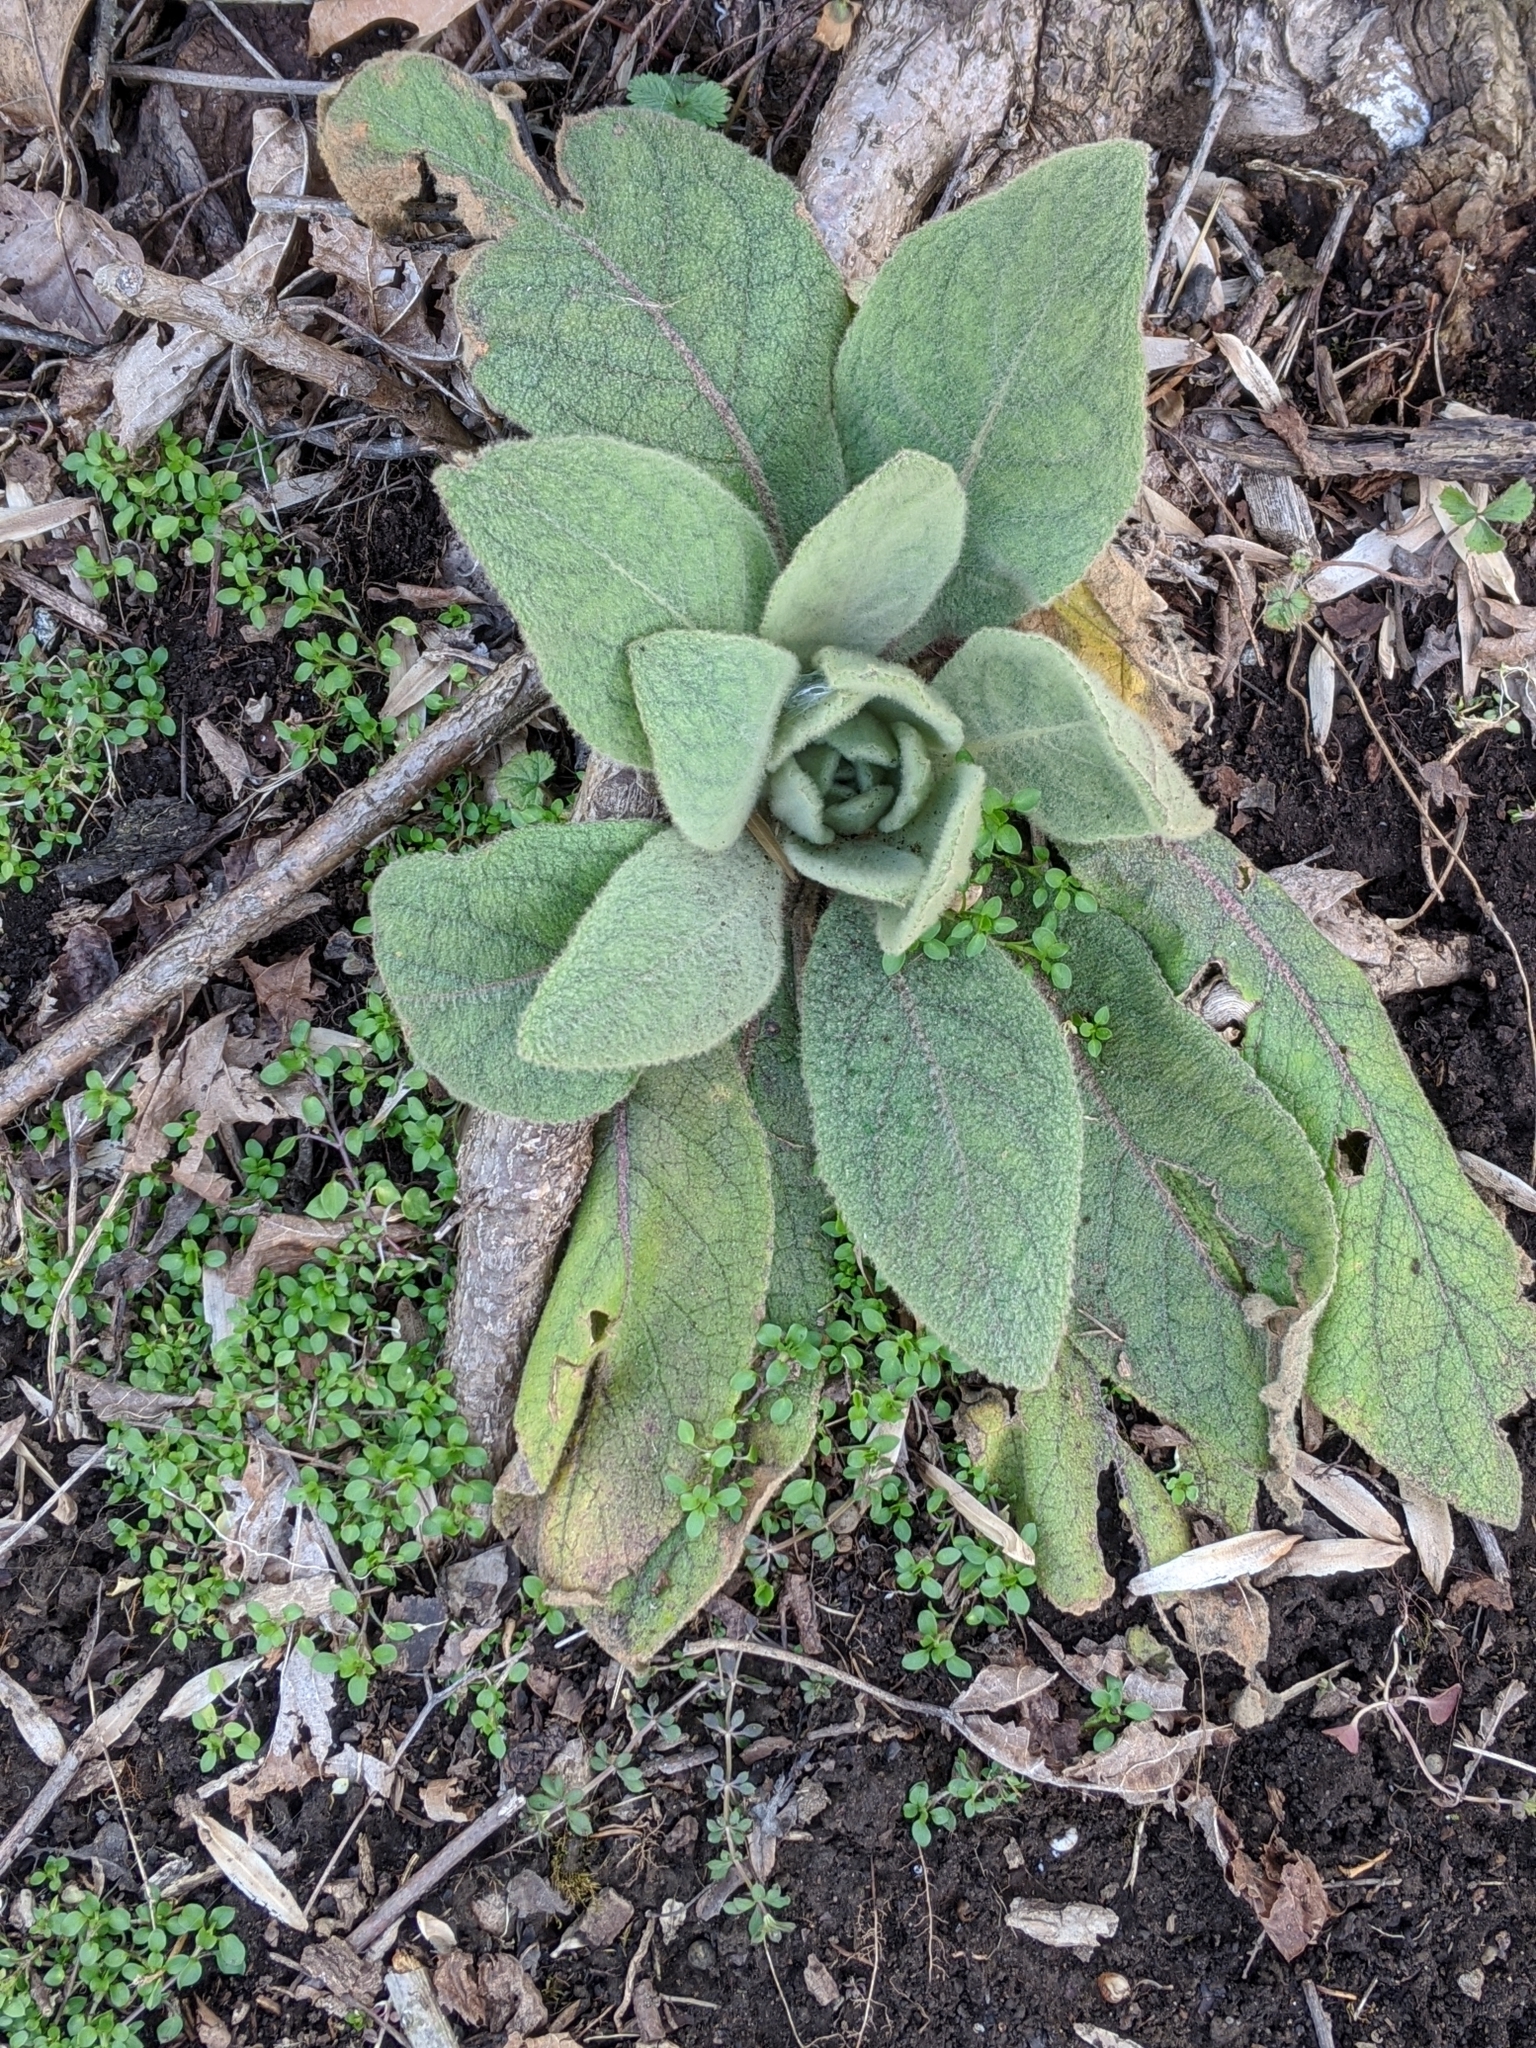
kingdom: Plantae
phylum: Tracheophyta
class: Magnoliopsida
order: Lamiales
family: Scrophulariaceae
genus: Verbascum
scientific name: Verbascum thapsus
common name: Common mullein
